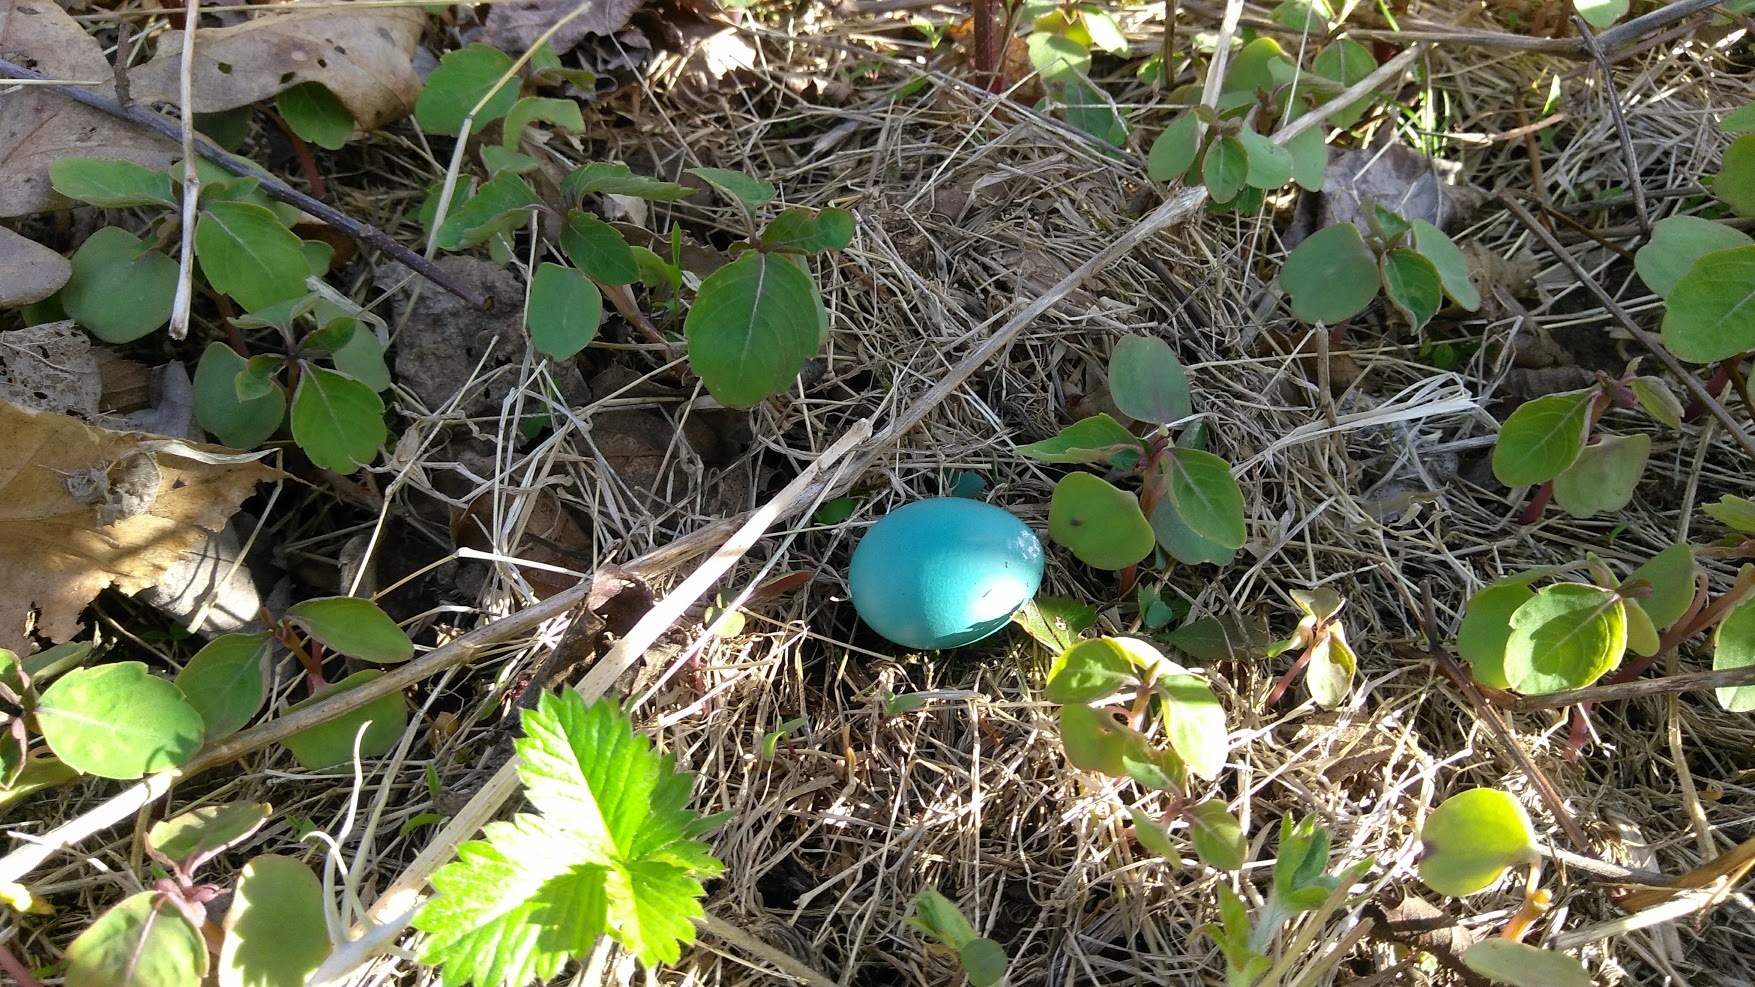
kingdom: Animalia
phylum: Chordata
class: Aves
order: Passeriformes
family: Turdidae
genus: Turdus
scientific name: Turdus migratorius
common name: American robin
